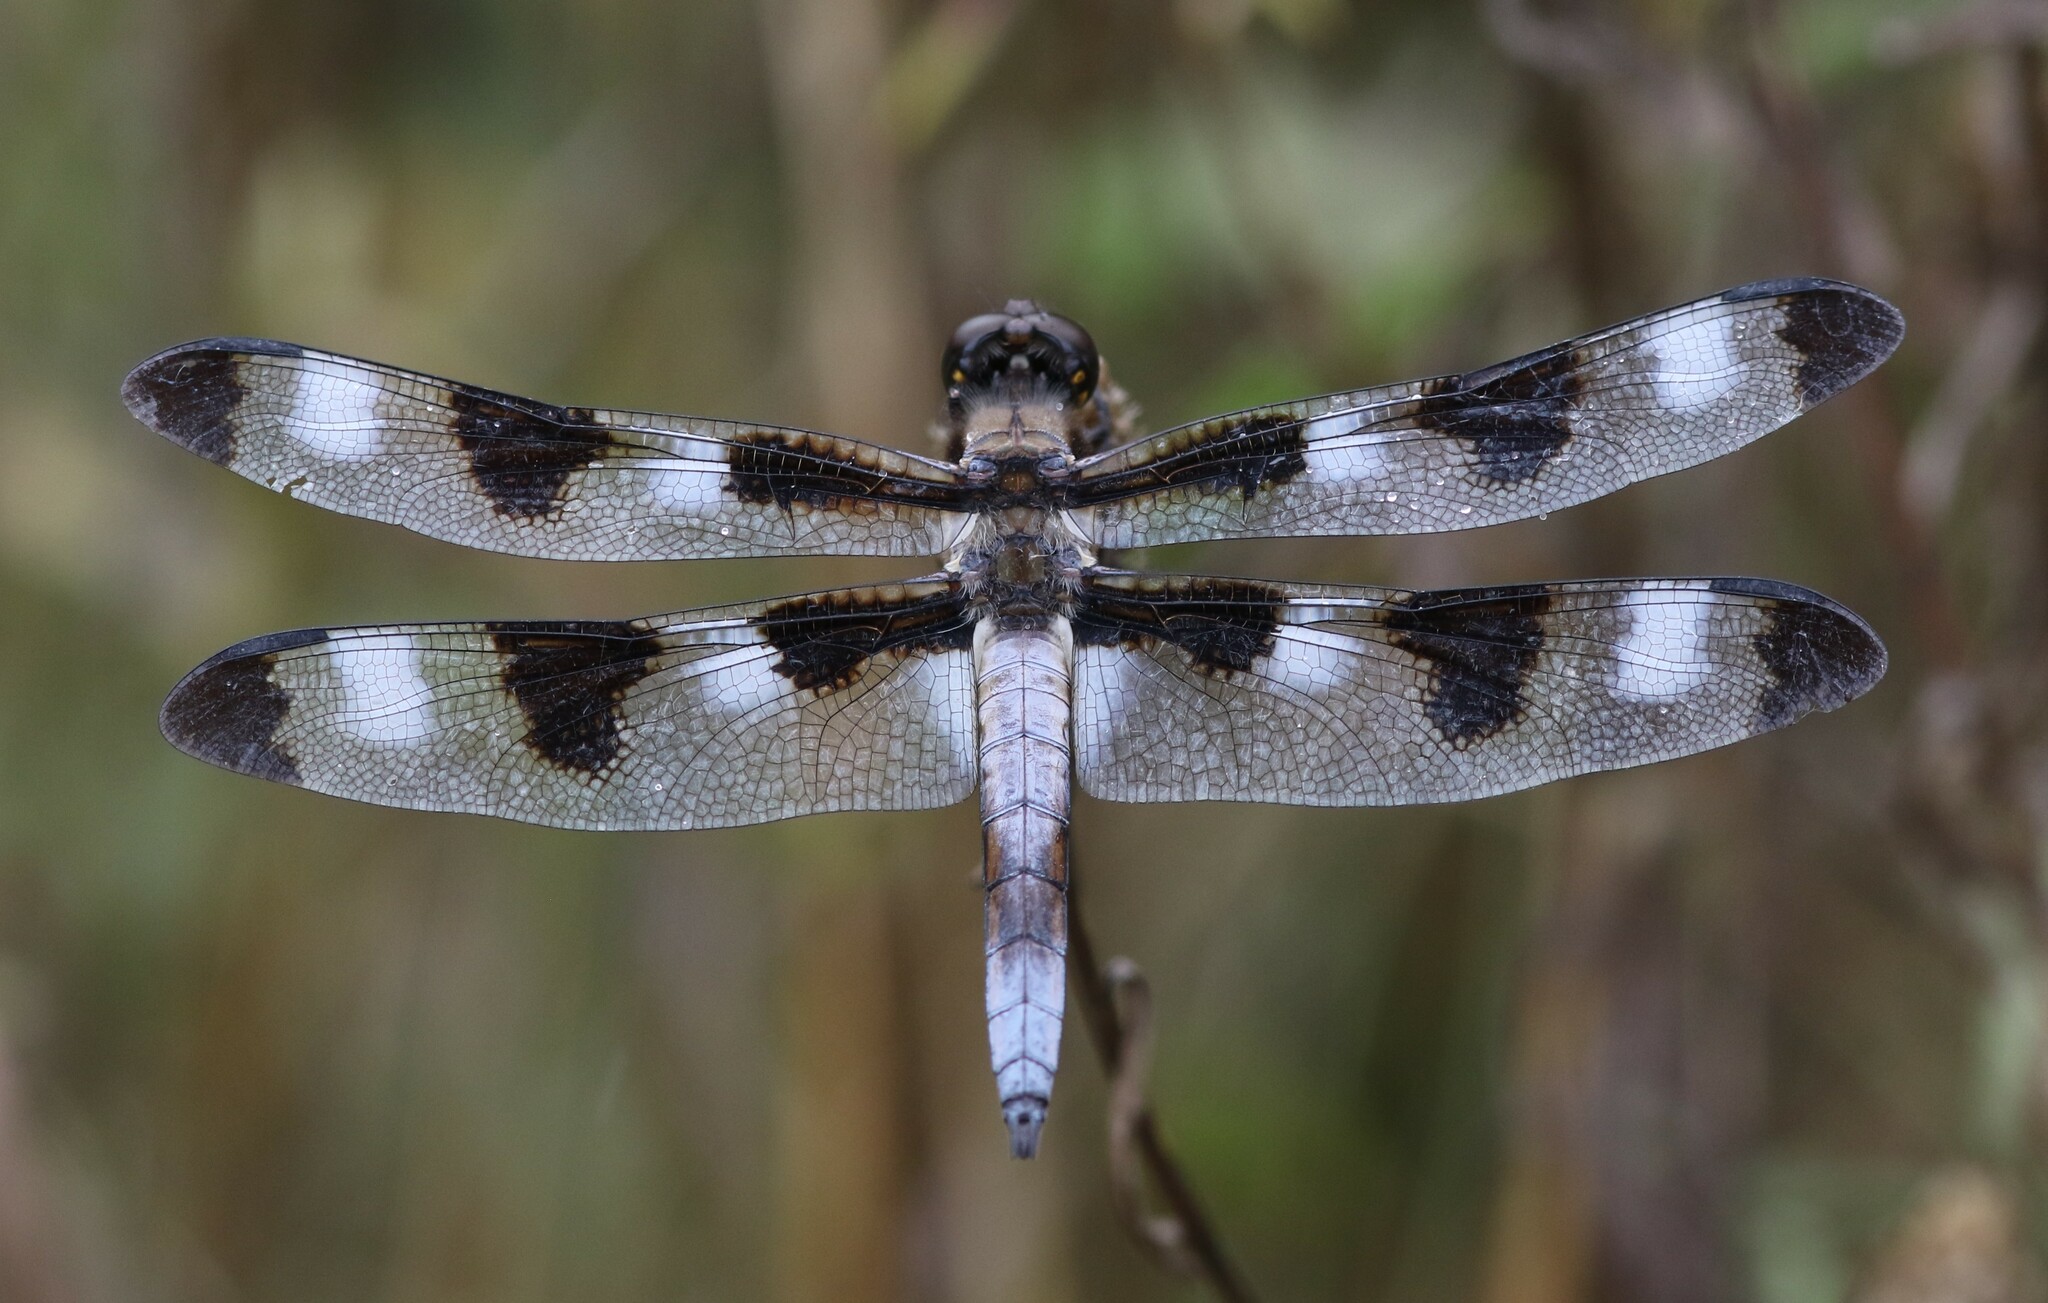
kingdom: Animalia
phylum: Arthropoda
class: Insecta
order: Odonata
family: Libellulidae
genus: Libellula
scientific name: Libellula pulchella
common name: Twelve-spotted skimmer
